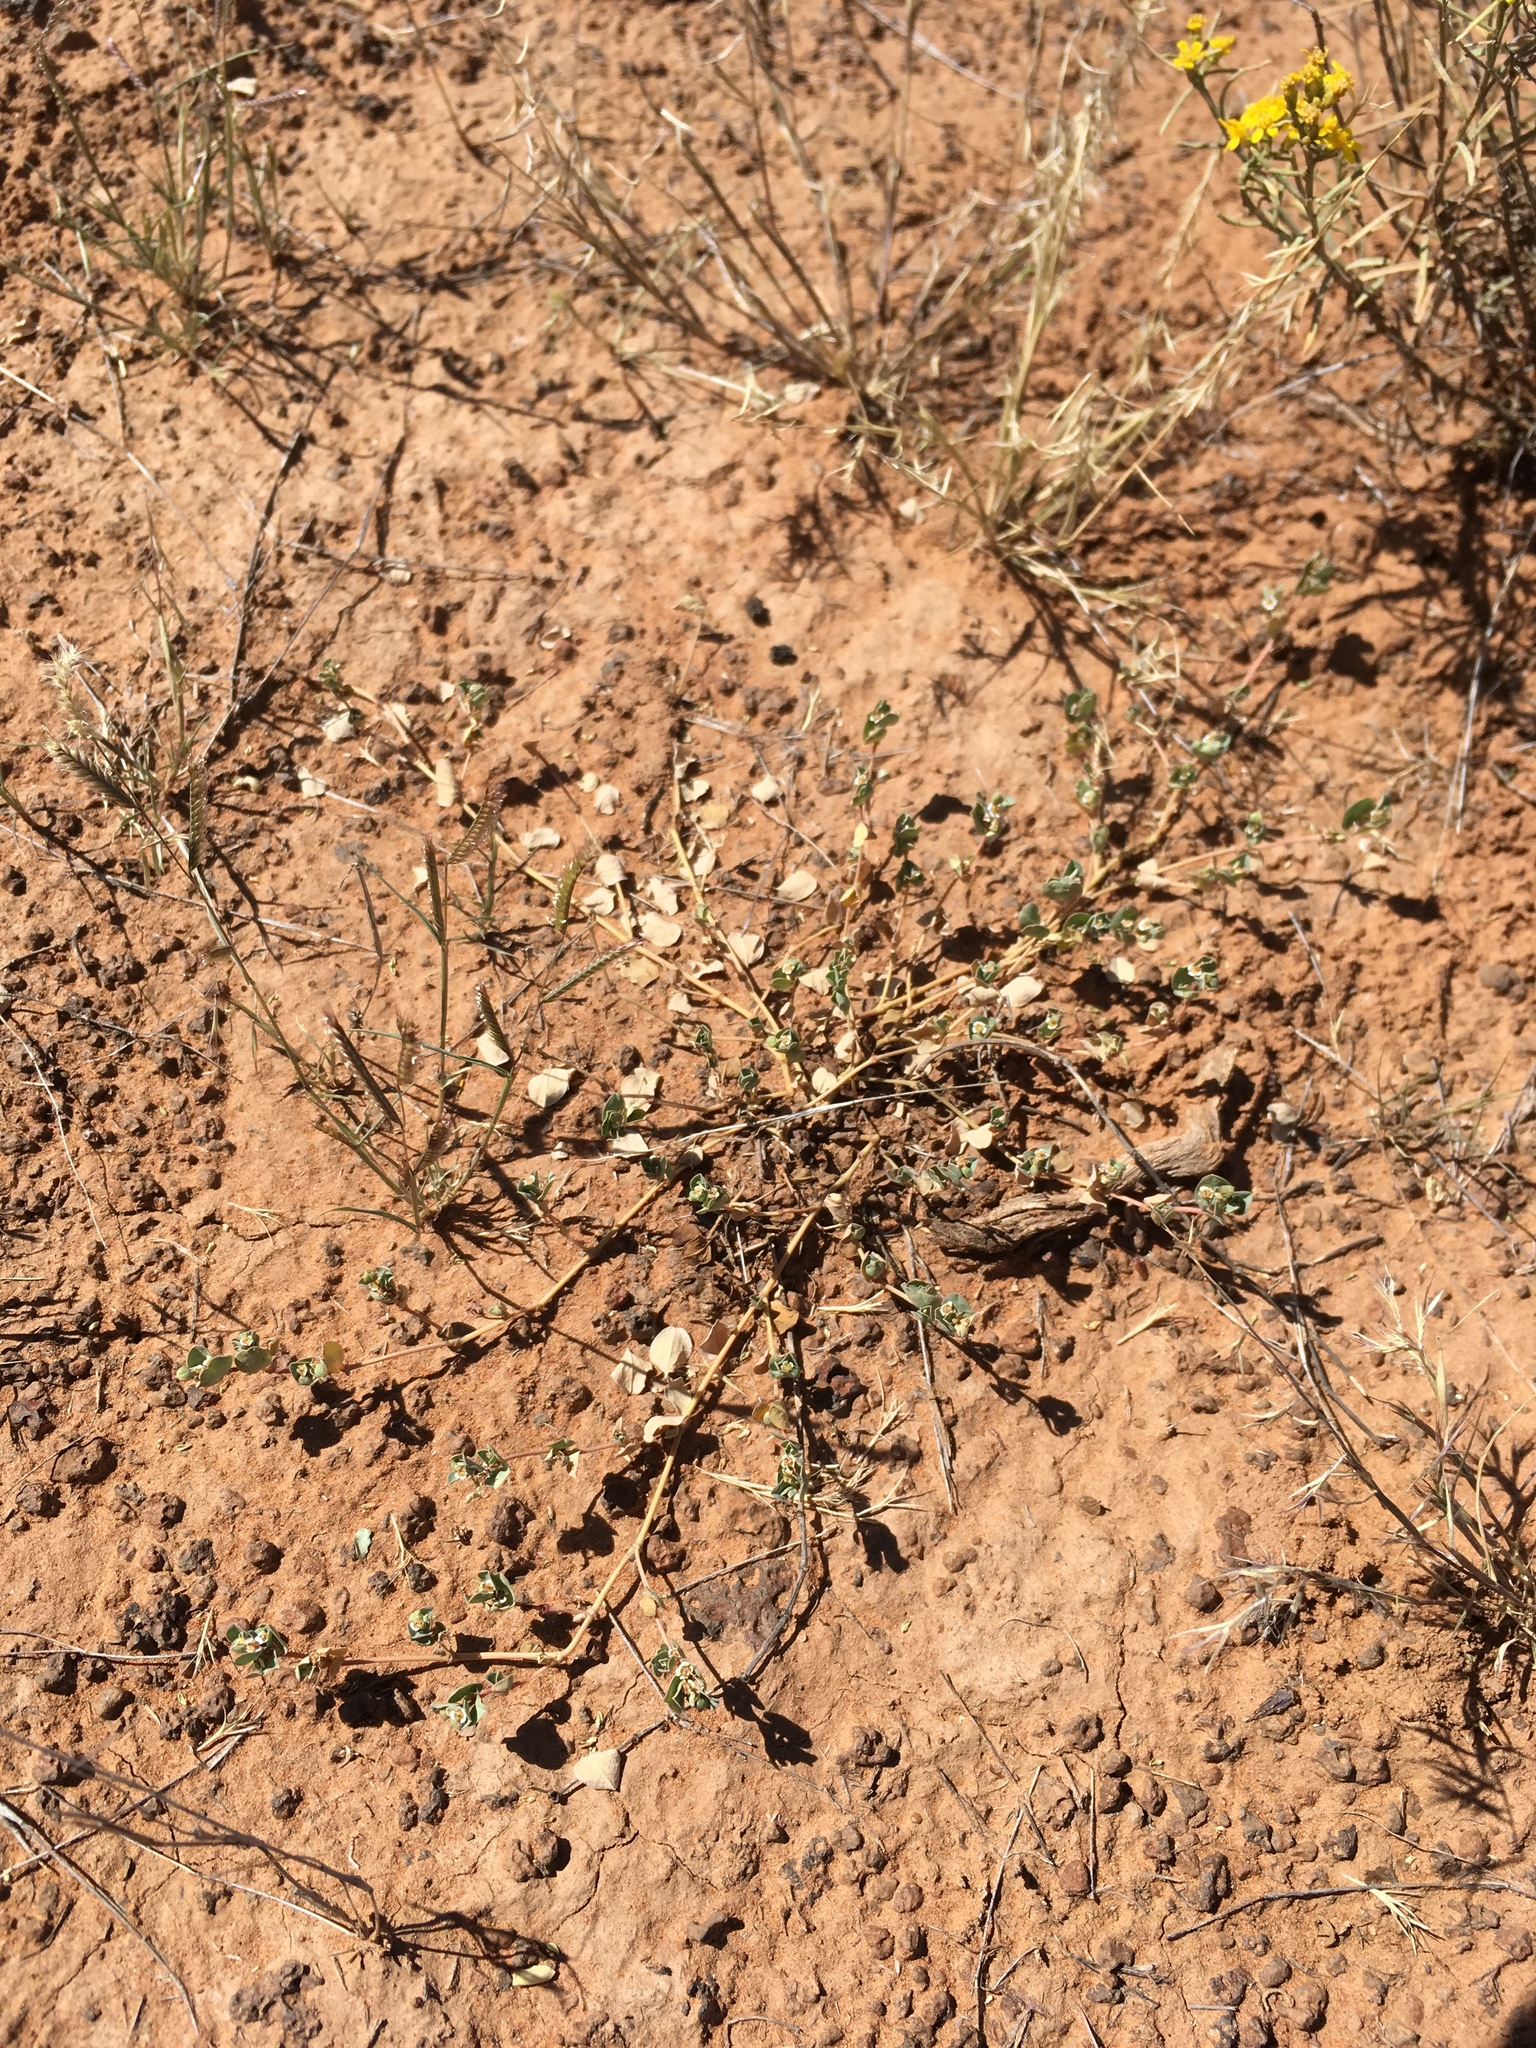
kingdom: Plantae
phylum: Tracheophyta
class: Magnoliopsida
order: Malpighiales
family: Euphorbiaceae
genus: Euphorbia
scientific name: Euphorbia albomarginata
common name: Whitemargin sandmat
